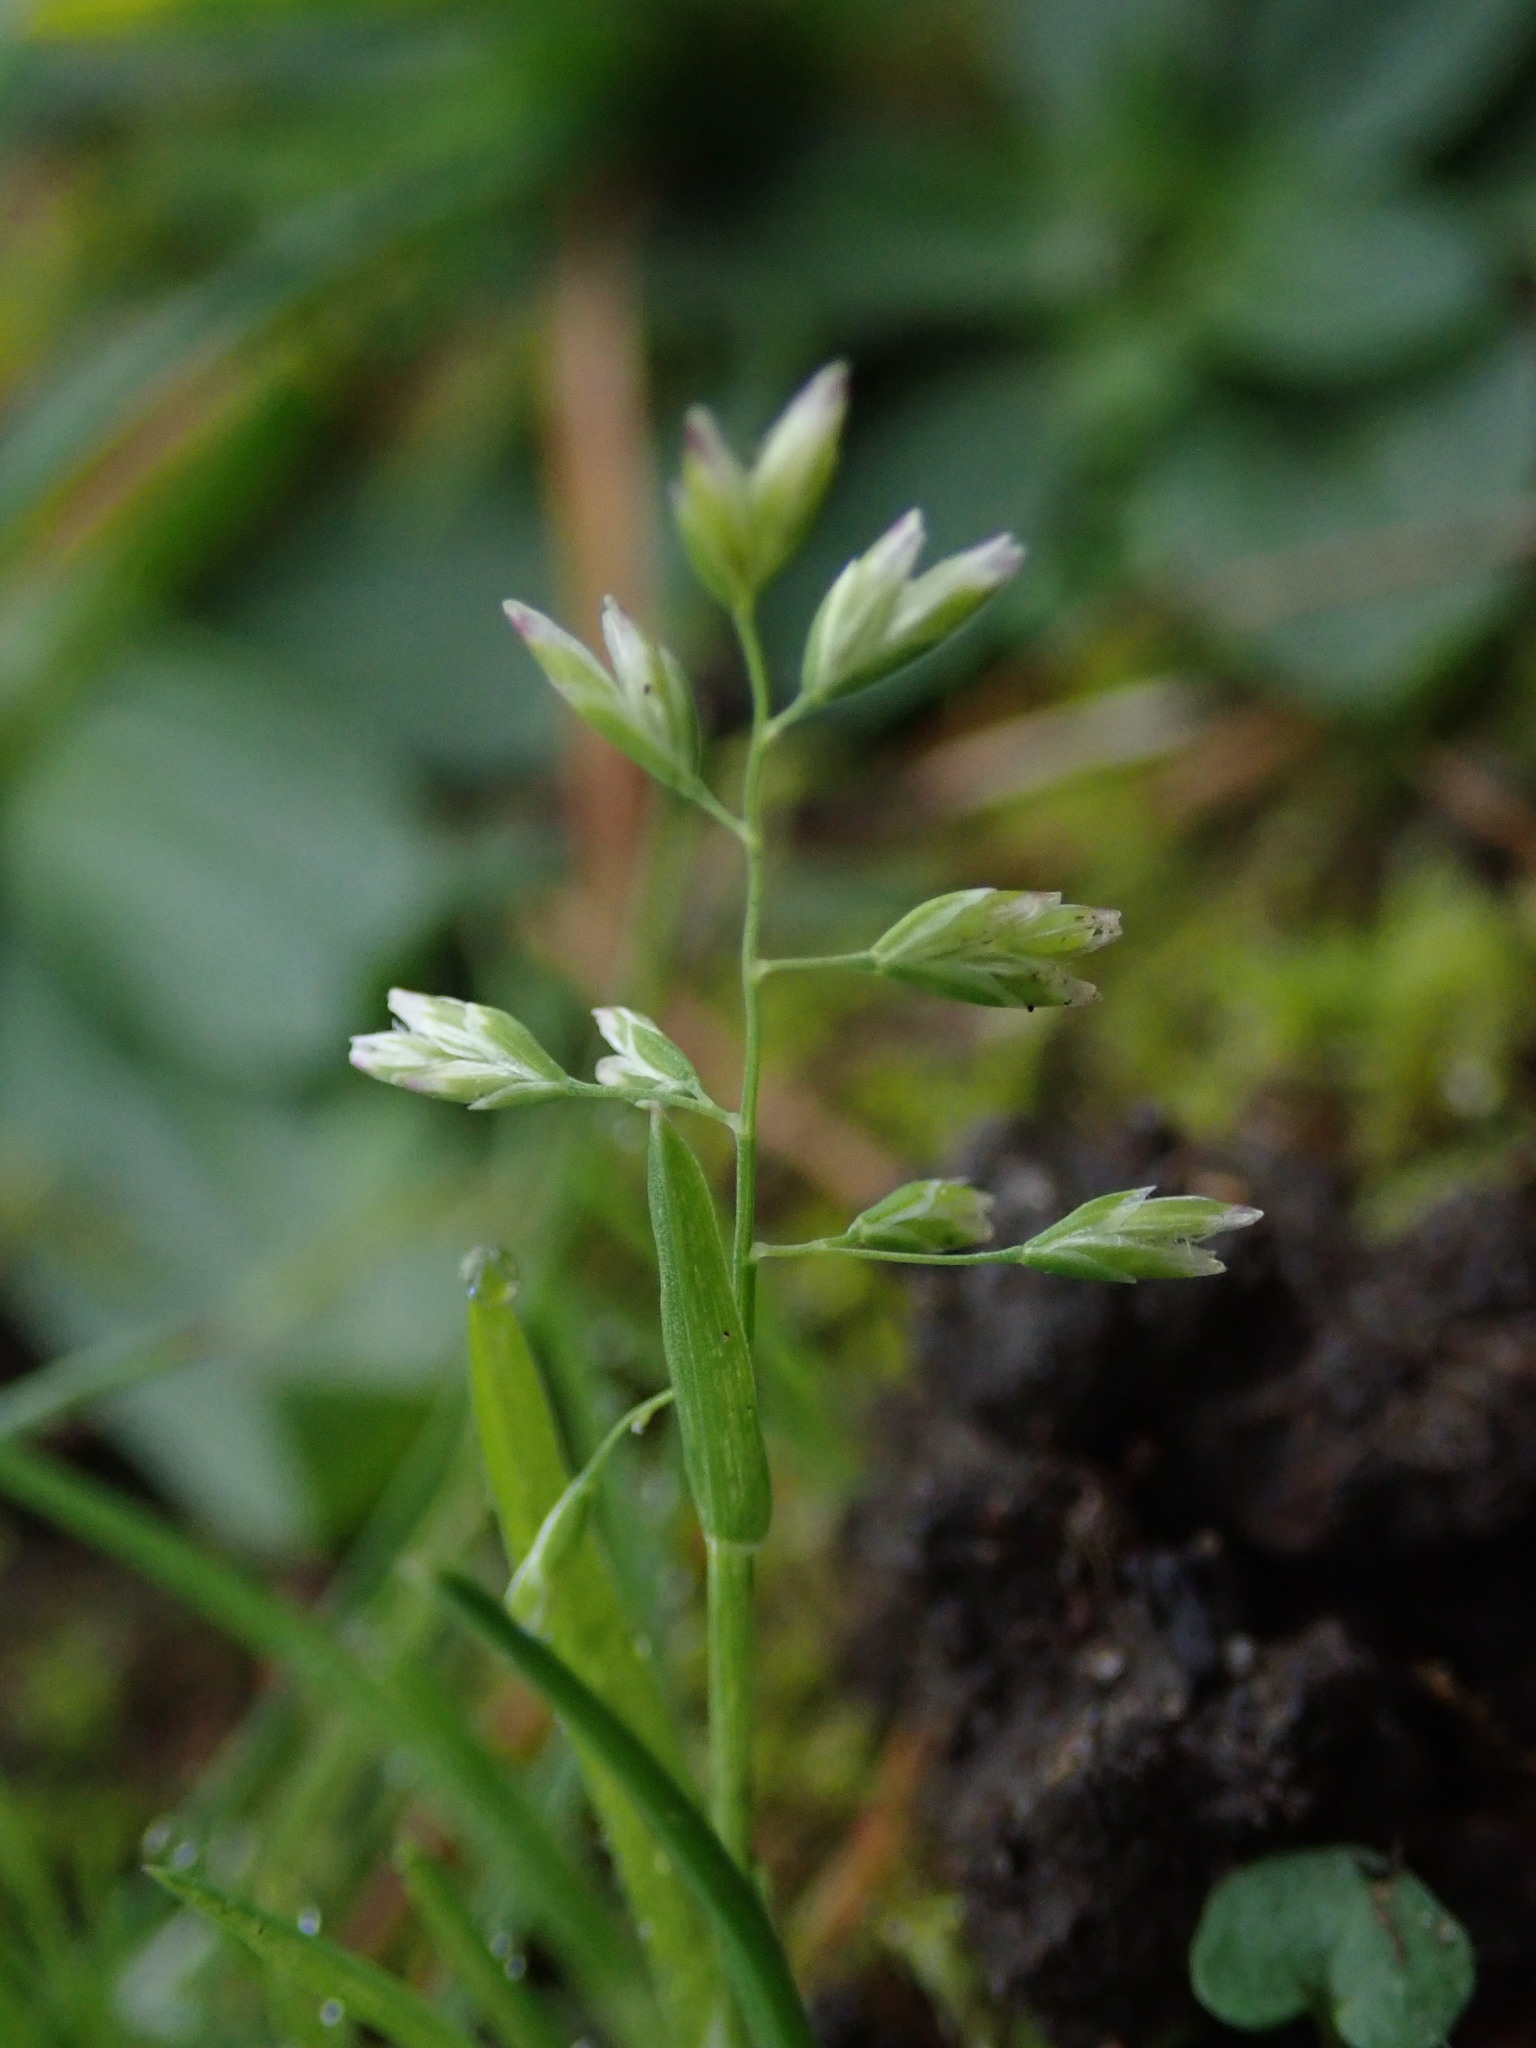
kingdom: Plantae
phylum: Tracheophyta
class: Liliopsida
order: Poales
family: Poaceae
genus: Poa
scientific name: Poa annua
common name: Annual bluegrass
